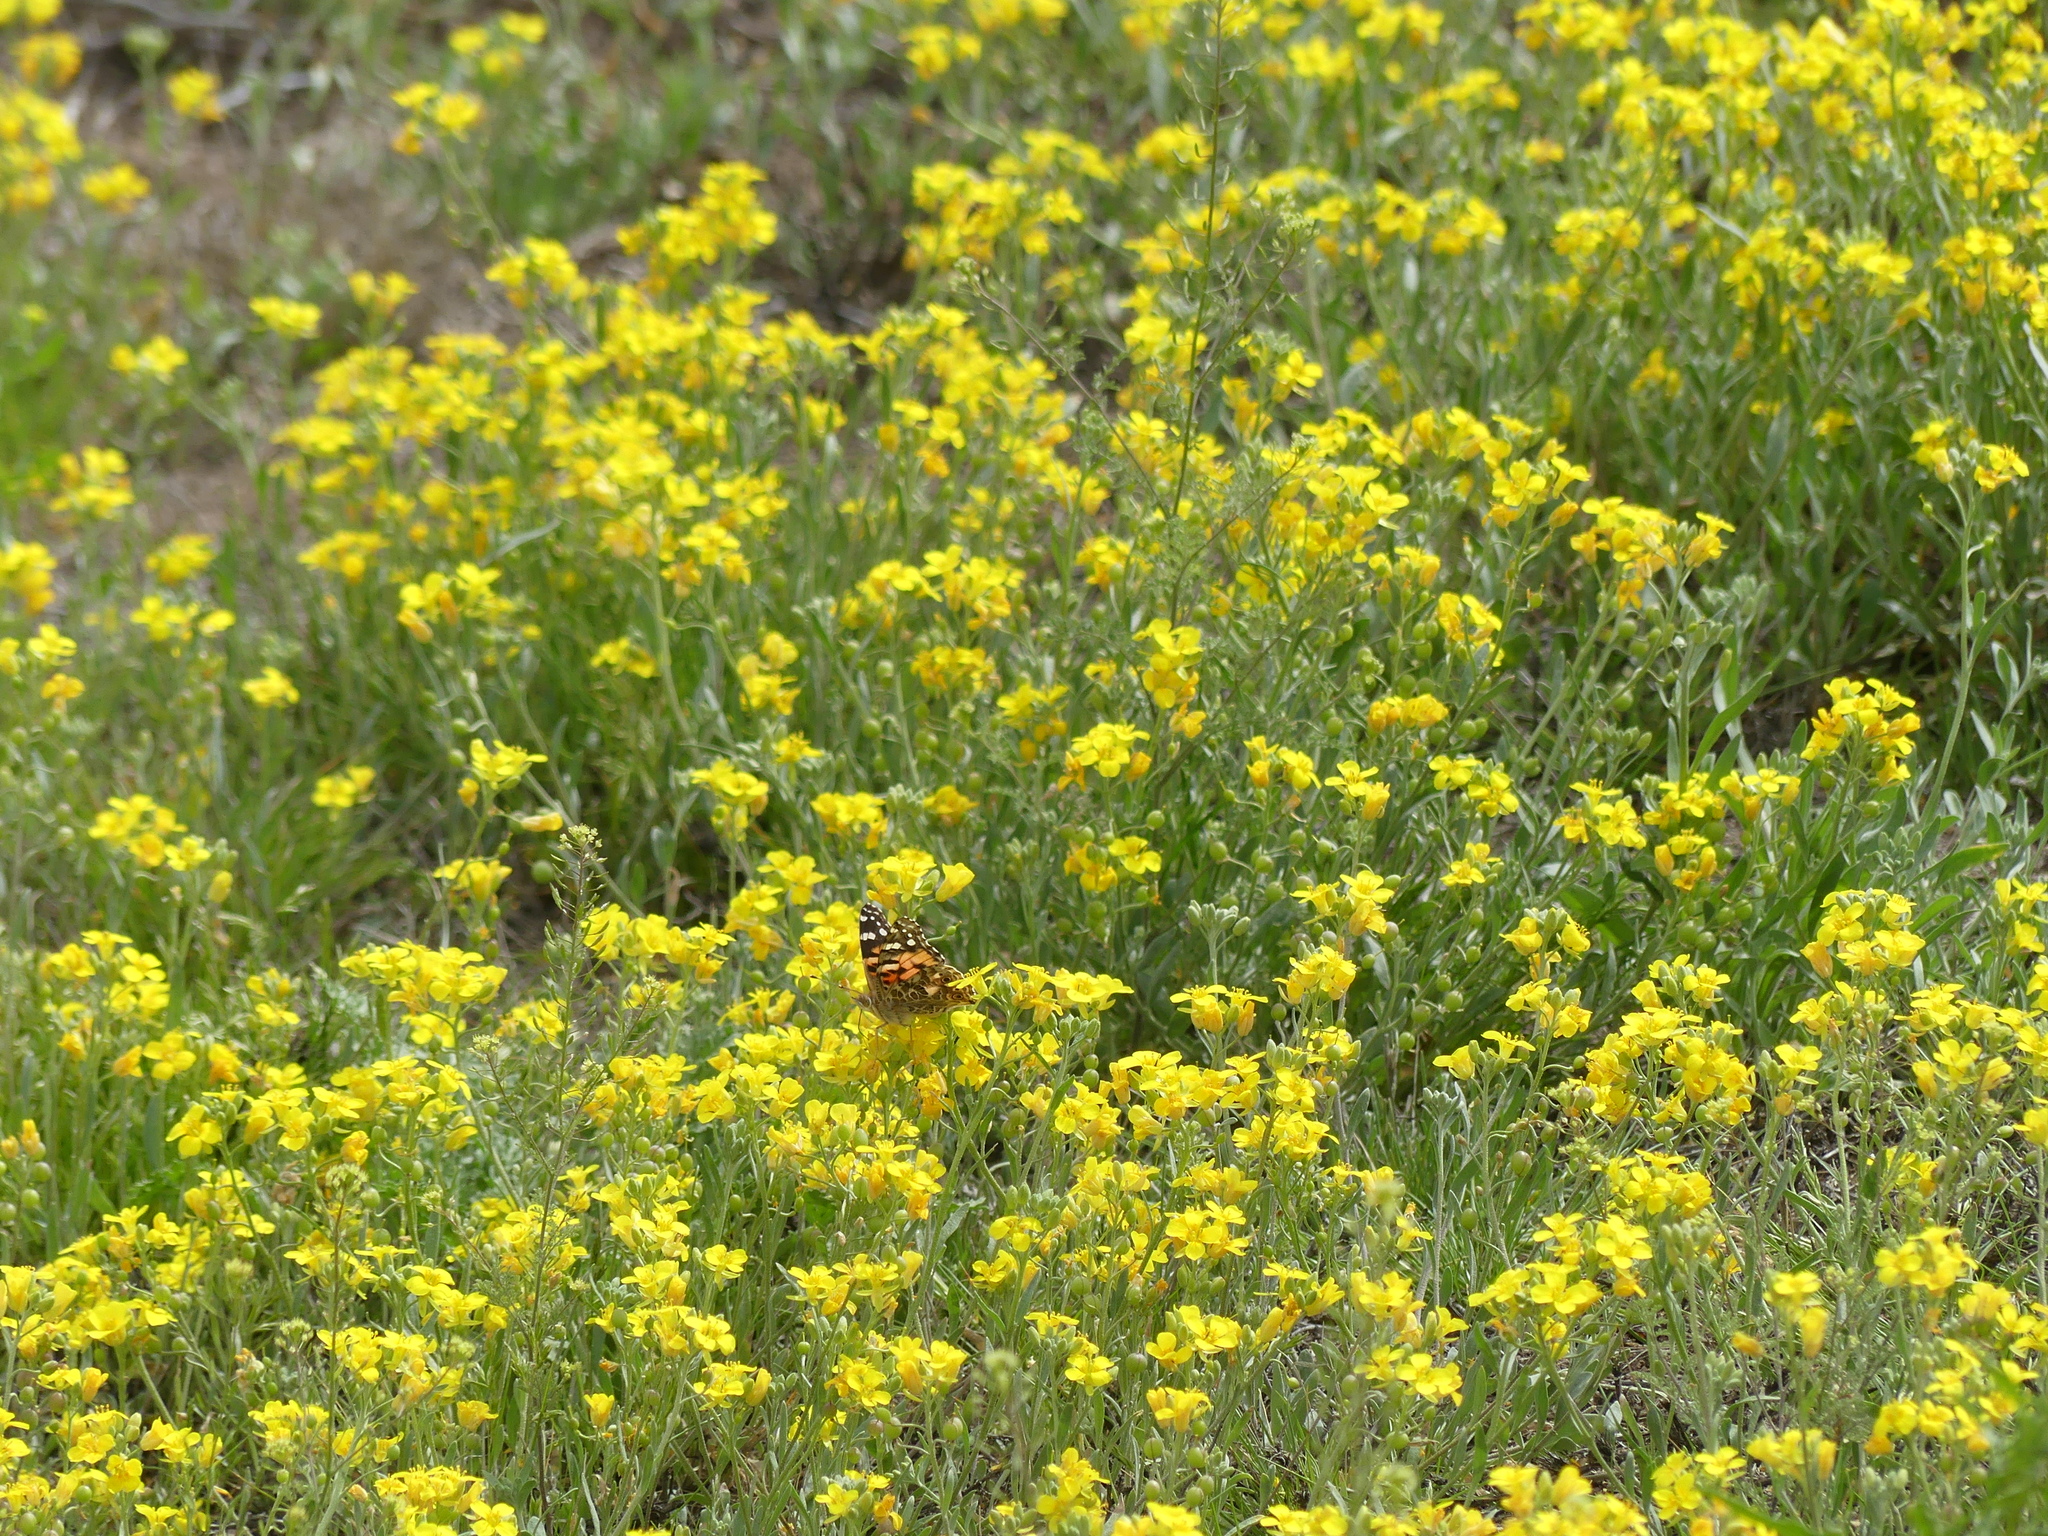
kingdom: Animalia
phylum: Arthropoda
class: Insecta
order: Lepidoptera
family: Nymphalidae
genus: Vanessa
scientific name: Vanessa cardui
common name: Painted lady
